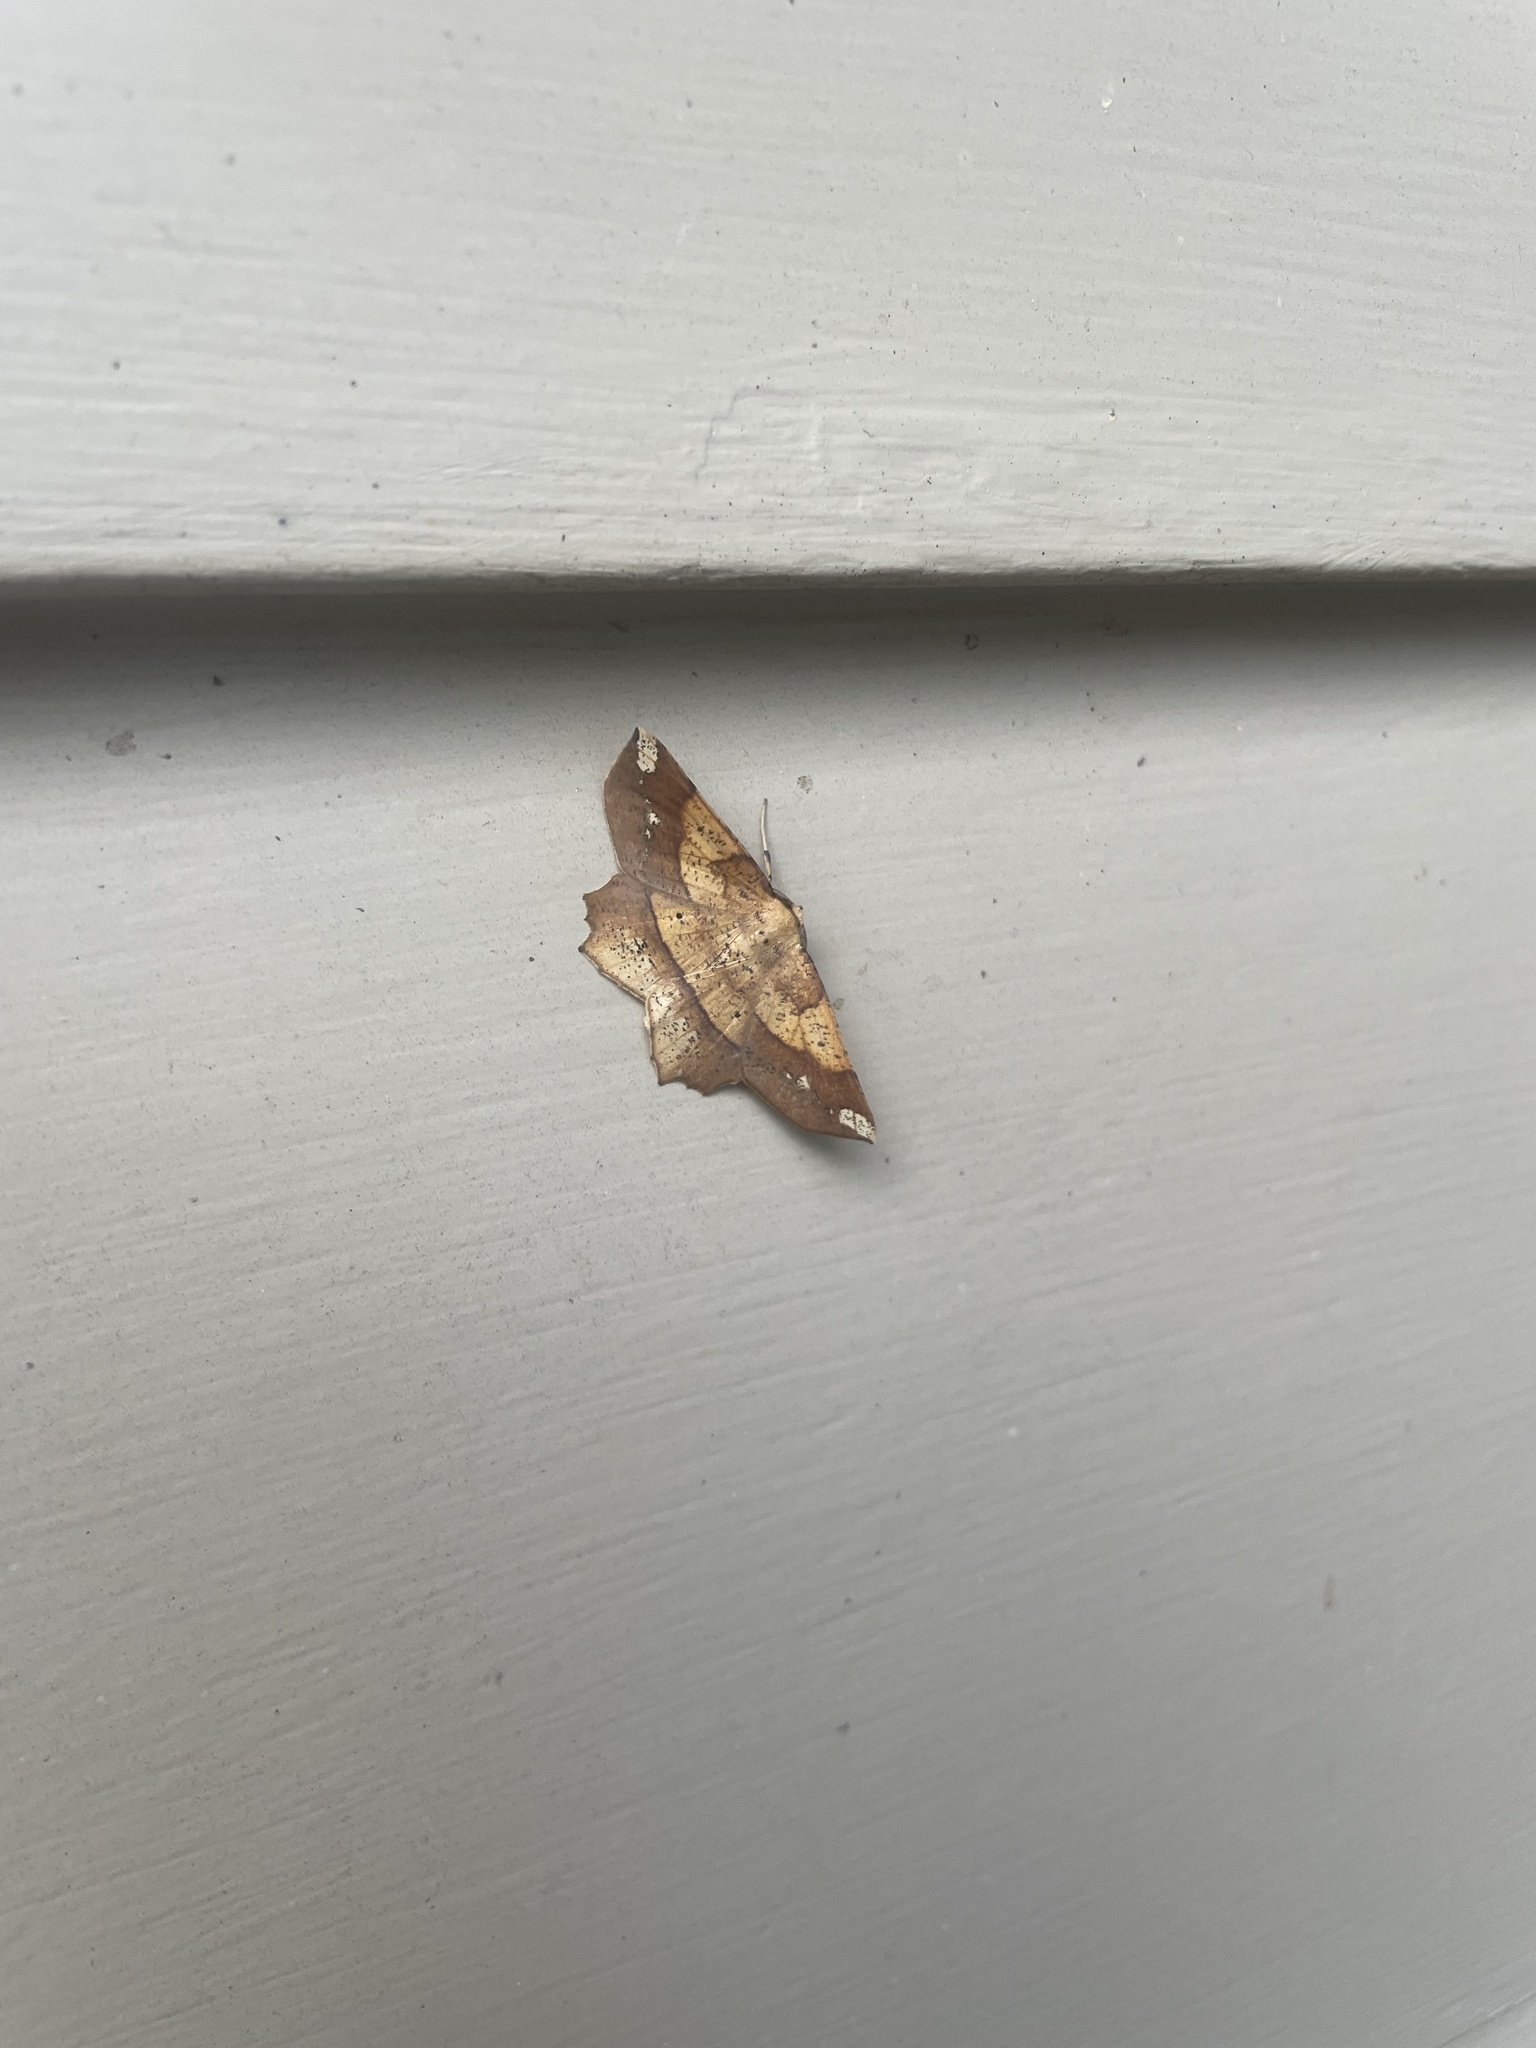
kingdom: Animalia
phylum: Arthropoda
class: Insecta
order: Lepidoptera
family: Geometridae
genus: Euchlaena
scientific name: Euchlaena amoenaria
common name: Deep yellow euchlaena
